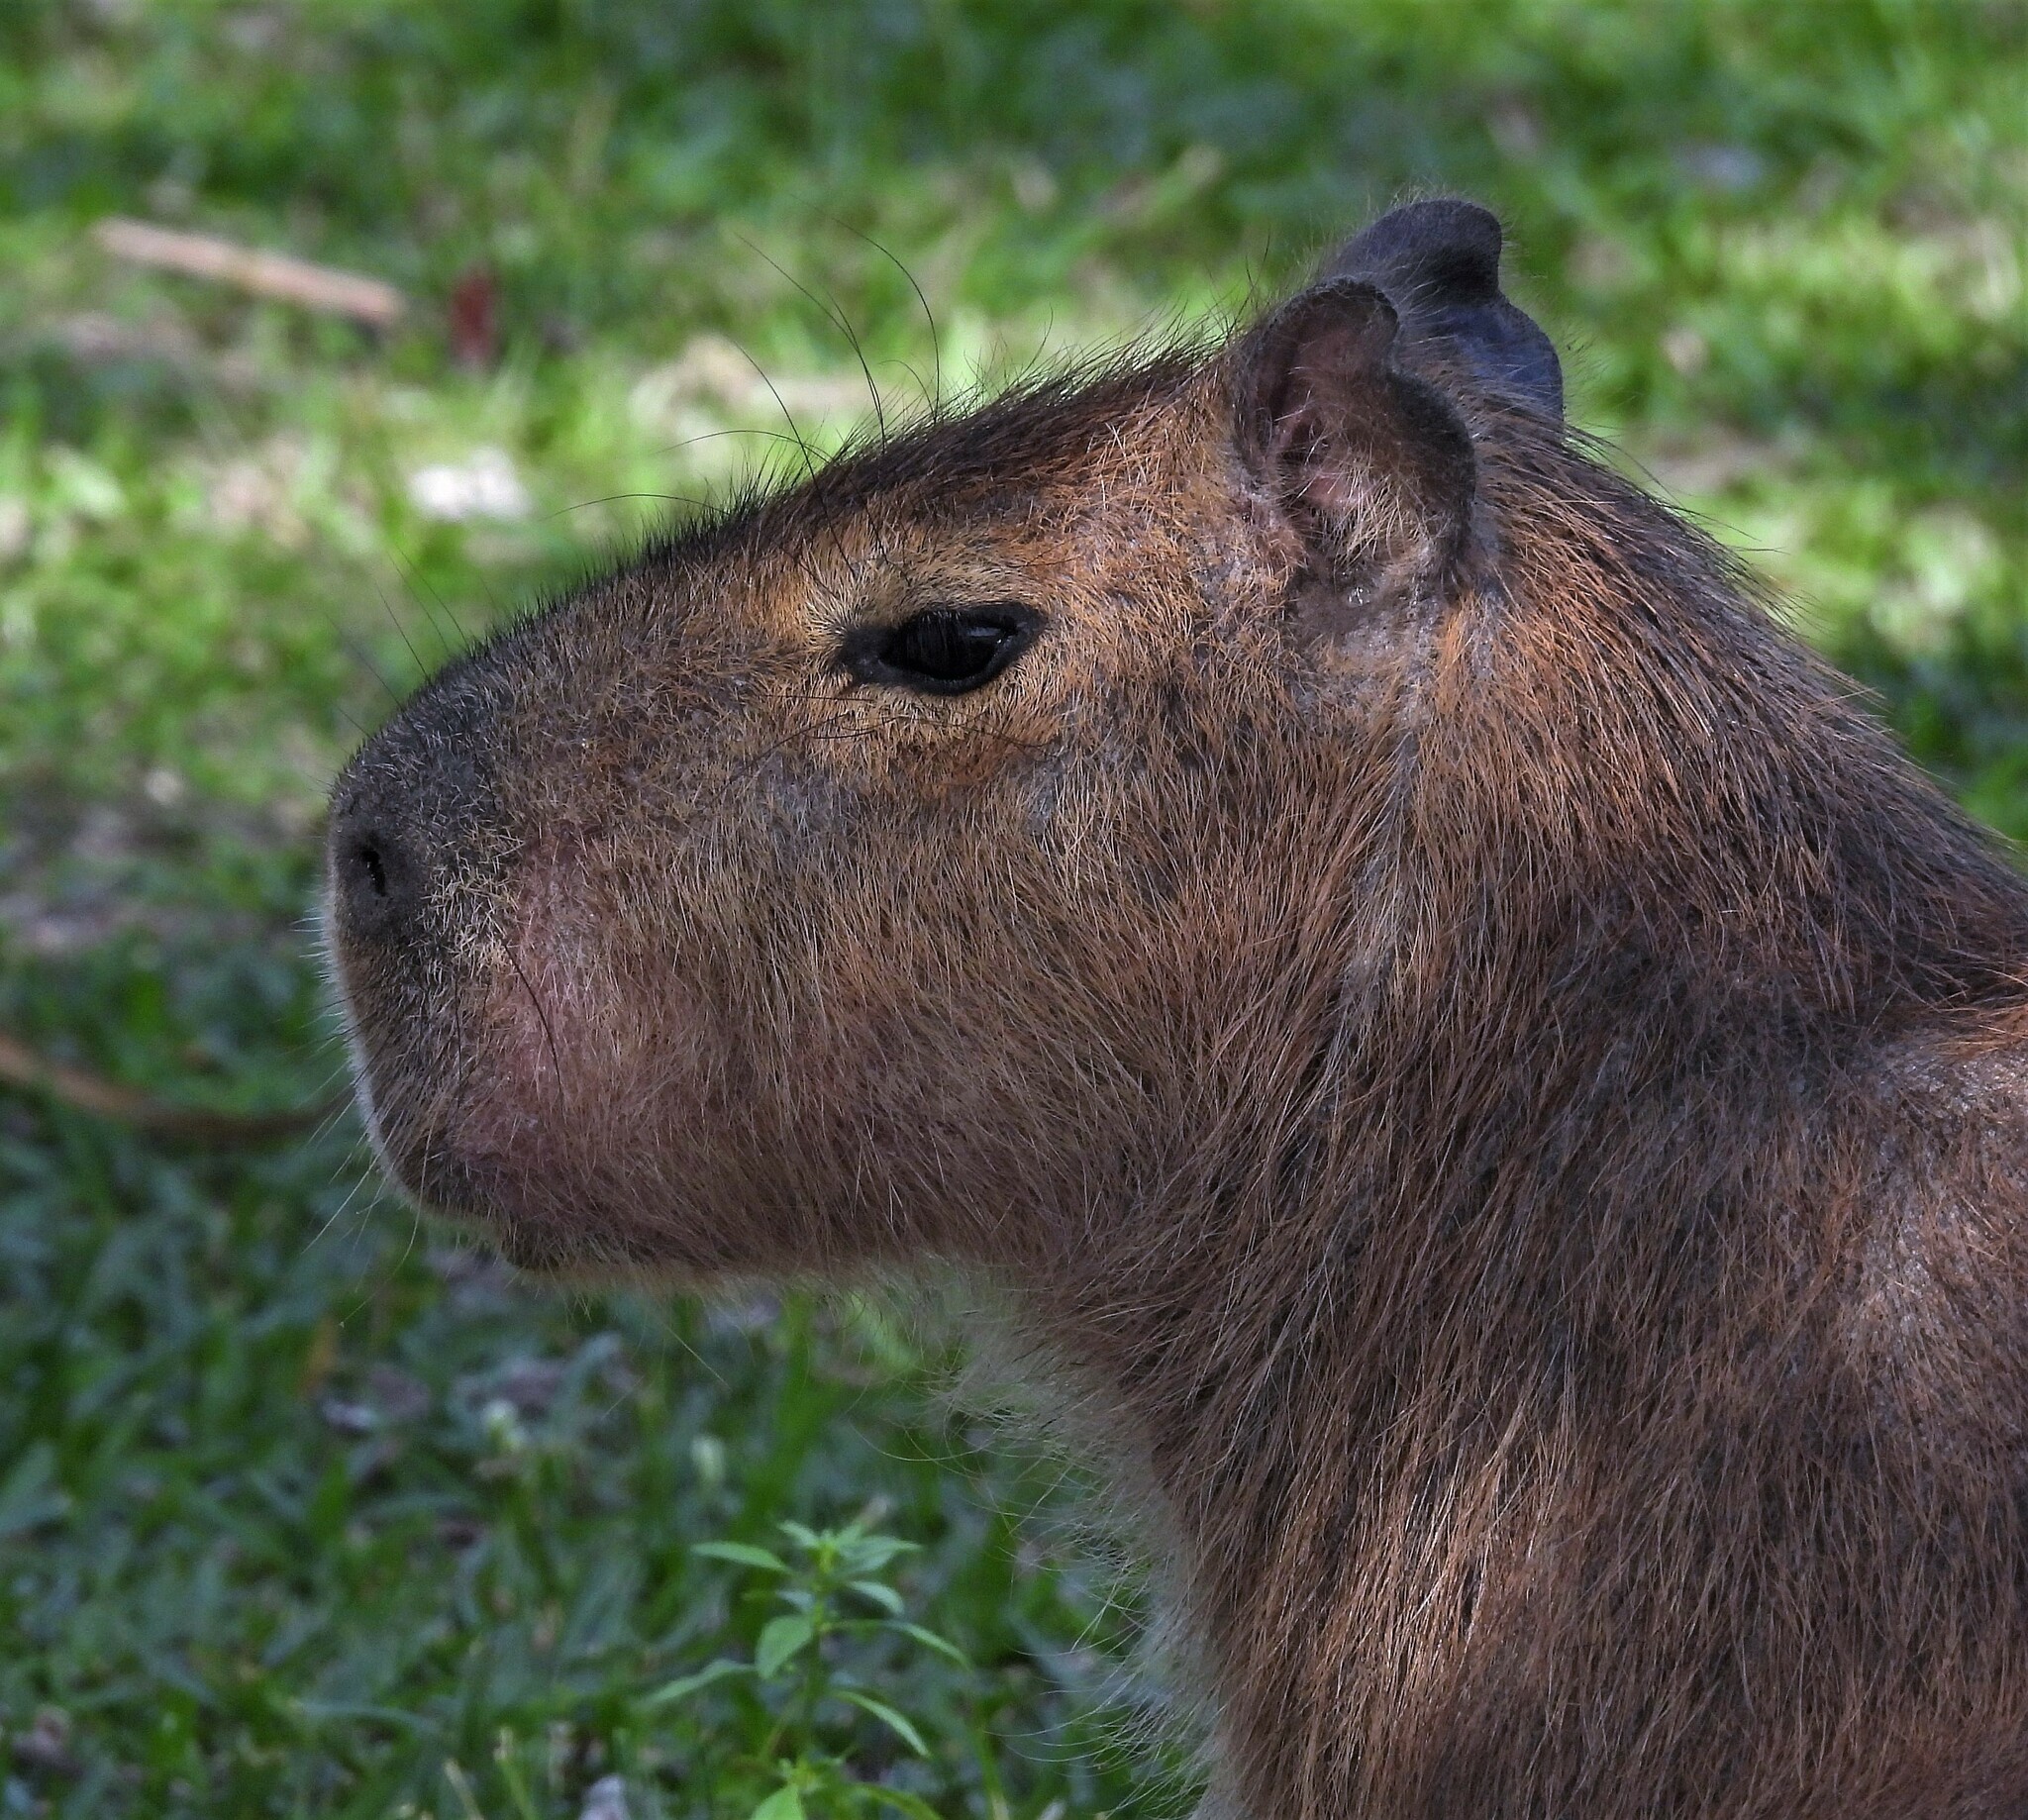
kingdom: Animalia
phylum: Chordata
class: Mammalia
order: Rodentia
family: Caviidae
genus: Hydrochoerus
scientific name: Hydrochoerus hydrochaeris
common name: Capybara
